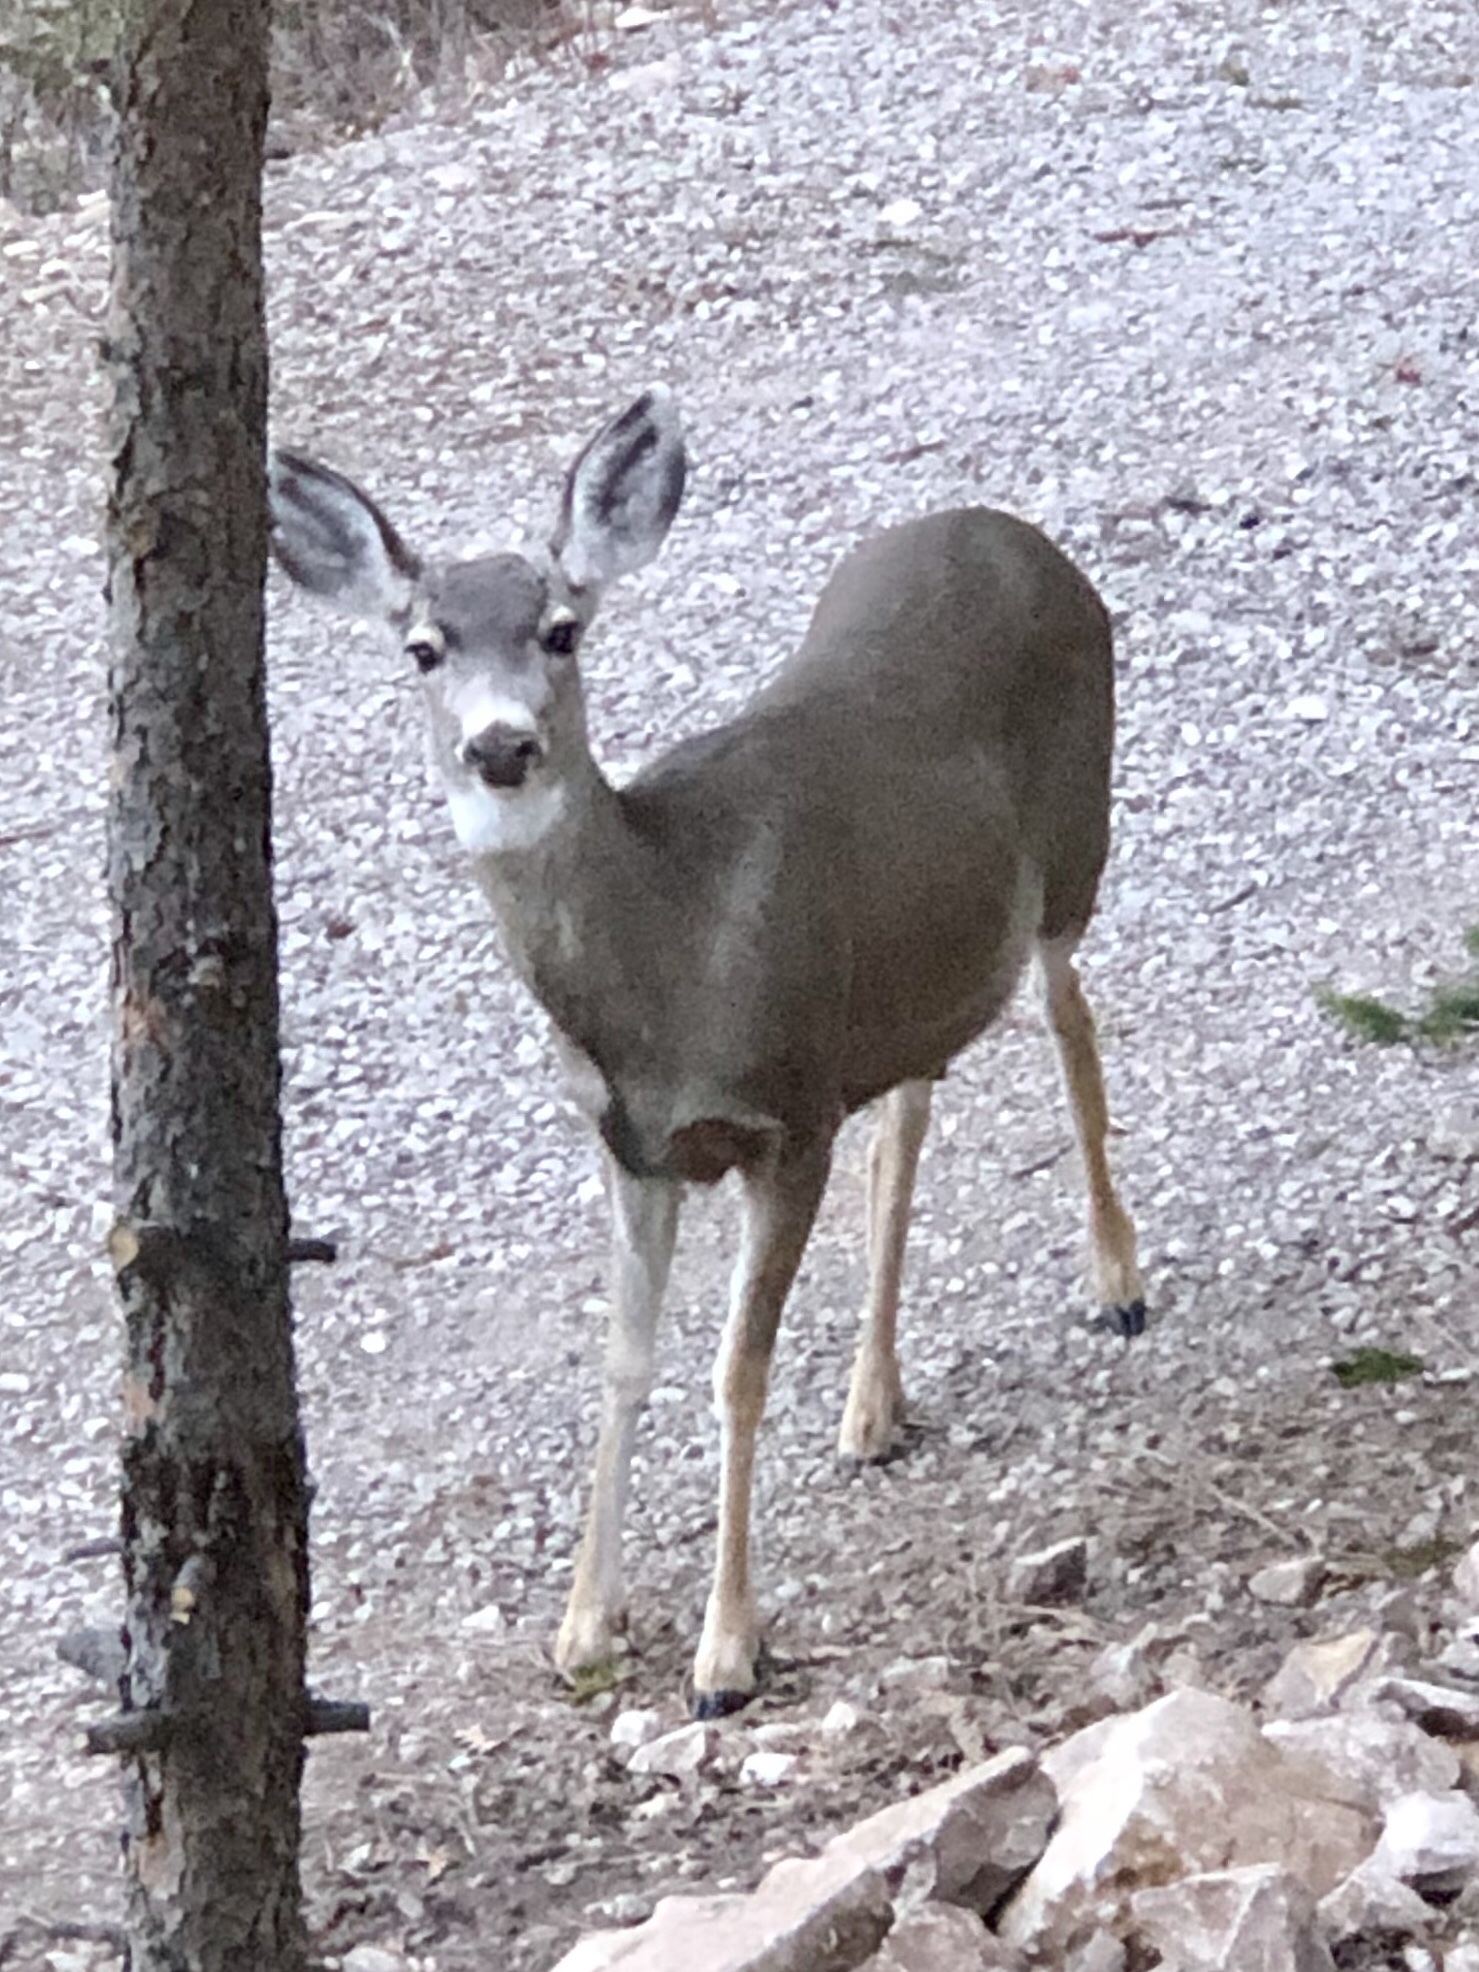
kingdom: Animalia
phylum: Chordata
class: Mammalia
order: Artiodactyla
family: Cervidae
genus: Odocoileus
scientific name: Odocoileus hemionus
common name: Mule deer
